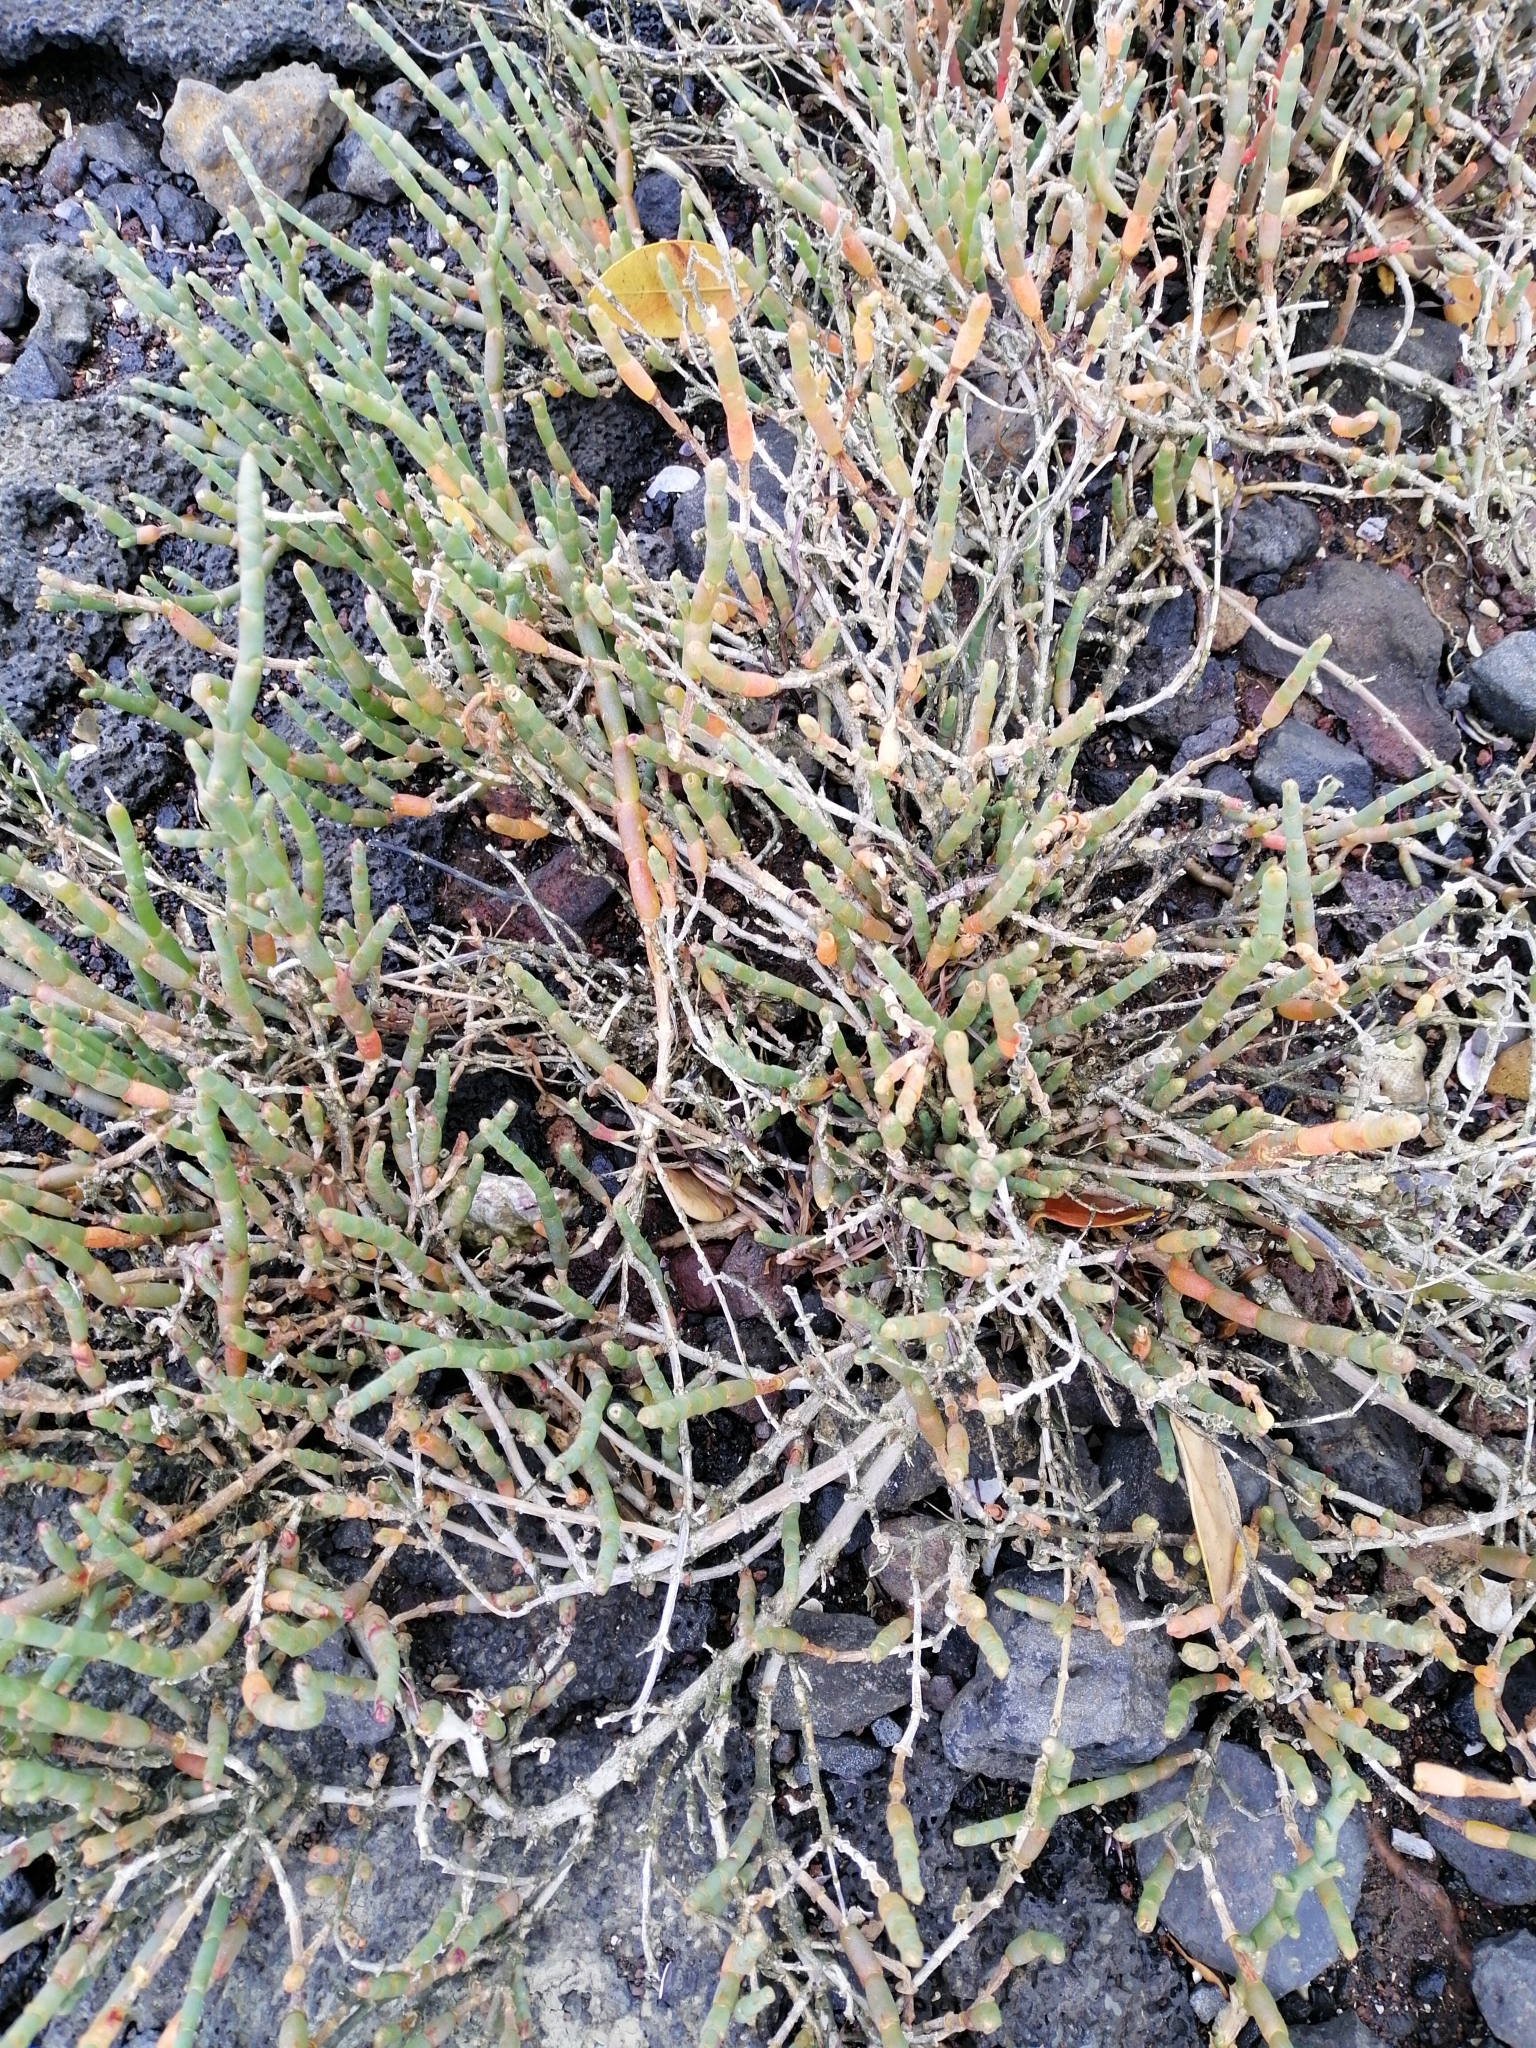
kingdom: Plantae
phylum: Tracheophyta
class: Magnoliopsida
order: Caryophyllales
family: Amaranthaceae
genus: Salicornia
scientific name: Salicornia quinqueflora
